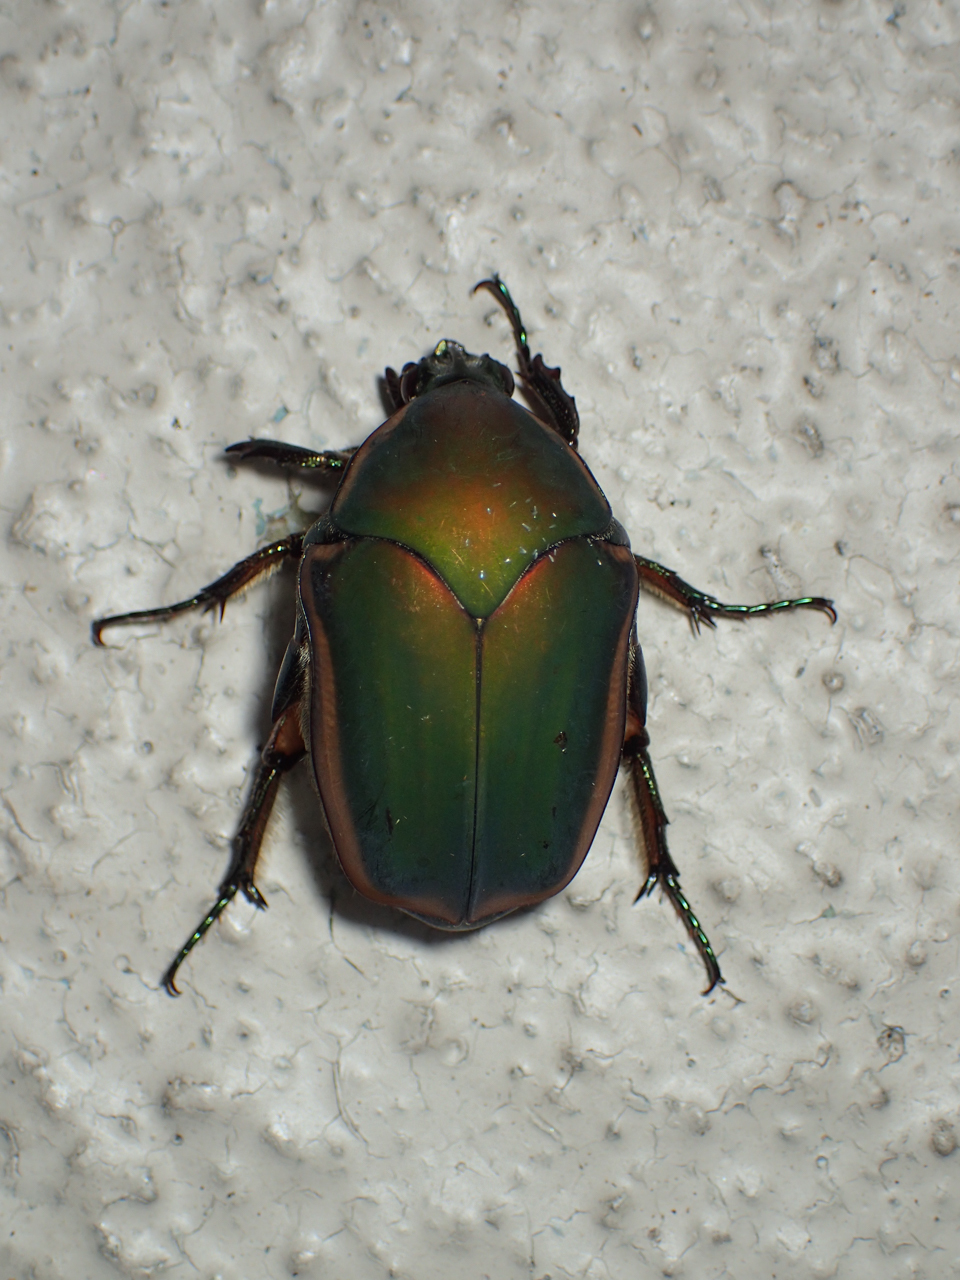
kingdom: Animalia
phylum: Arthropoda
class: Insecta
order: Coleoptera
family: Scarabaeidae
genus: Cotinis
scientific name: Cotinis nitida
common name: Common green june beetle
